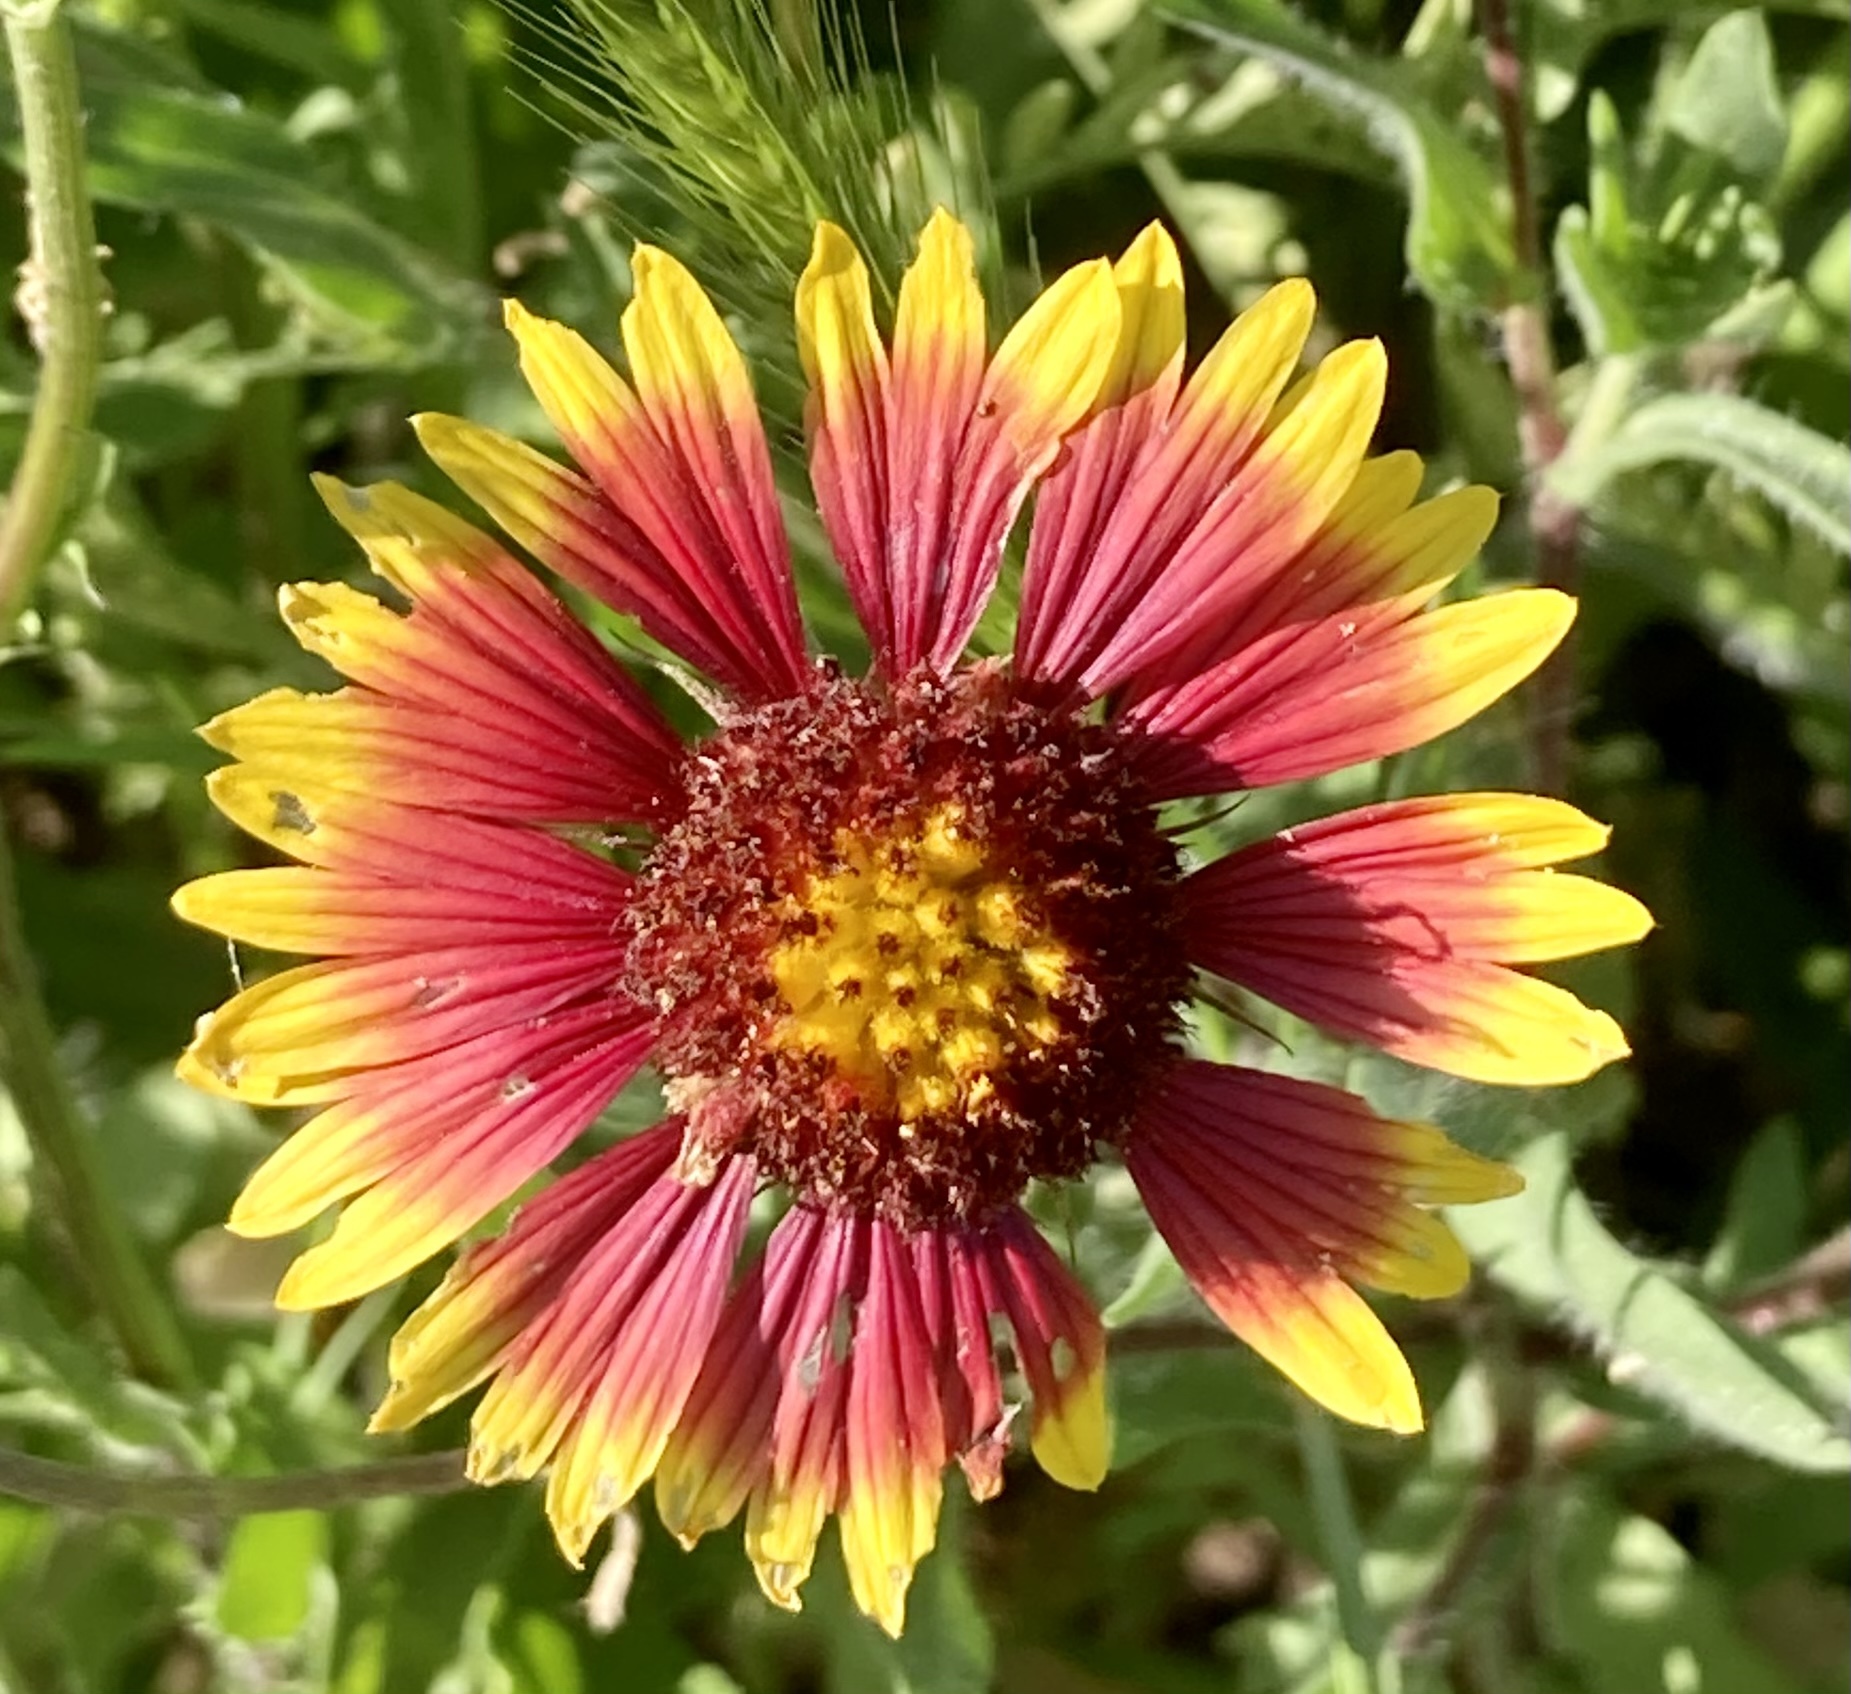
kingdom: Plantae
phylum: Tracheophyta
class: Magnoliopsida
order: Asterales
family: Asteraceae
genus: Gaillardia
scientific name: Gaillardia pulchella
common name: Firewheel
